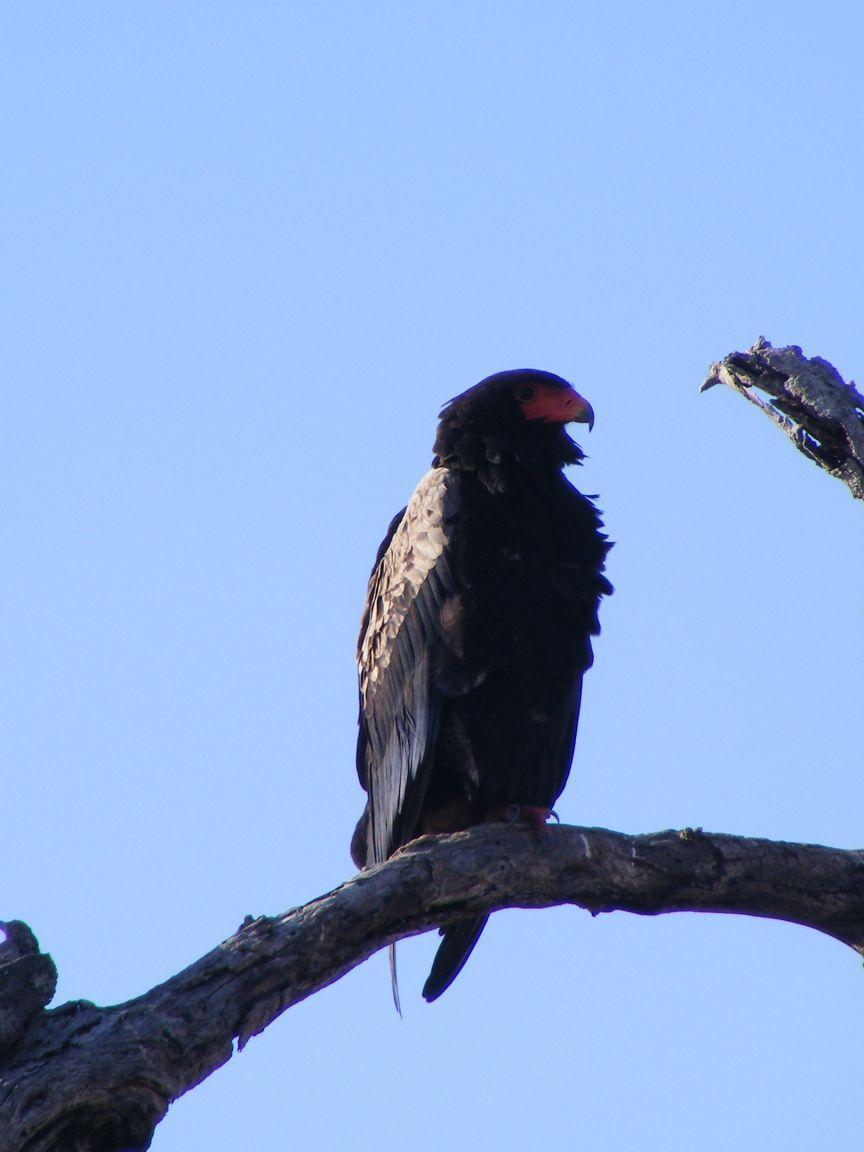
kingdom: Animalia
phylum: Chordata
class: Aves
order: Accipitriformes
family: Accipitridae
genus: Terathopius
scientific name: Terathopius ecaudatus
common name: Bateleur
